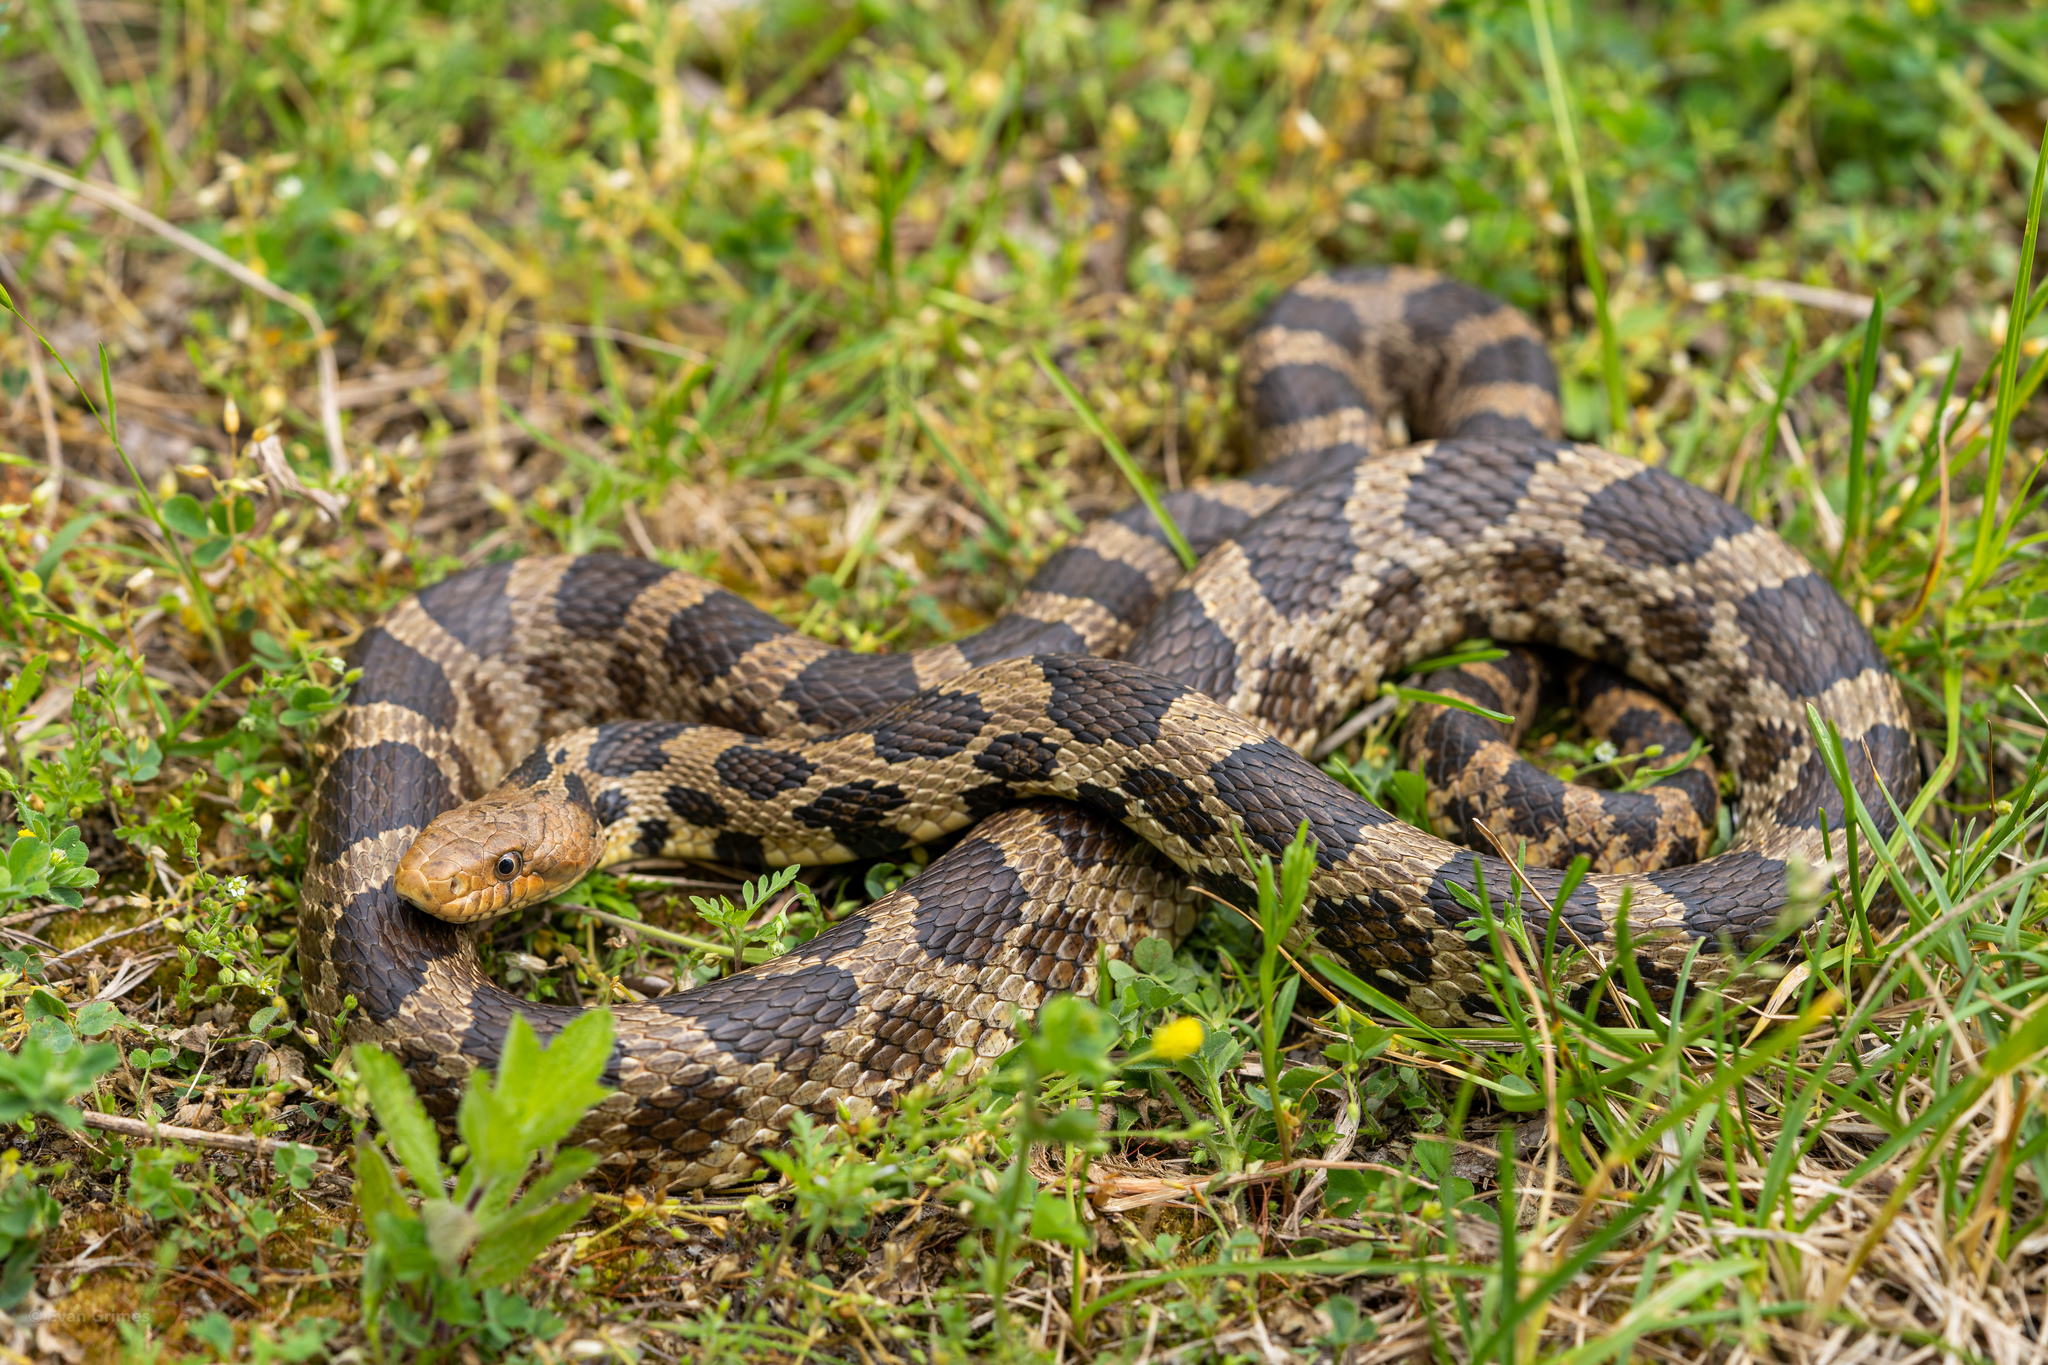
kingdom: Animalia
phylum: Chordata
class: Squamata
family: Colubridae
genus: Pantherophis
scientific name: Pantherophis ramspotti
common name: Western foxsnake
